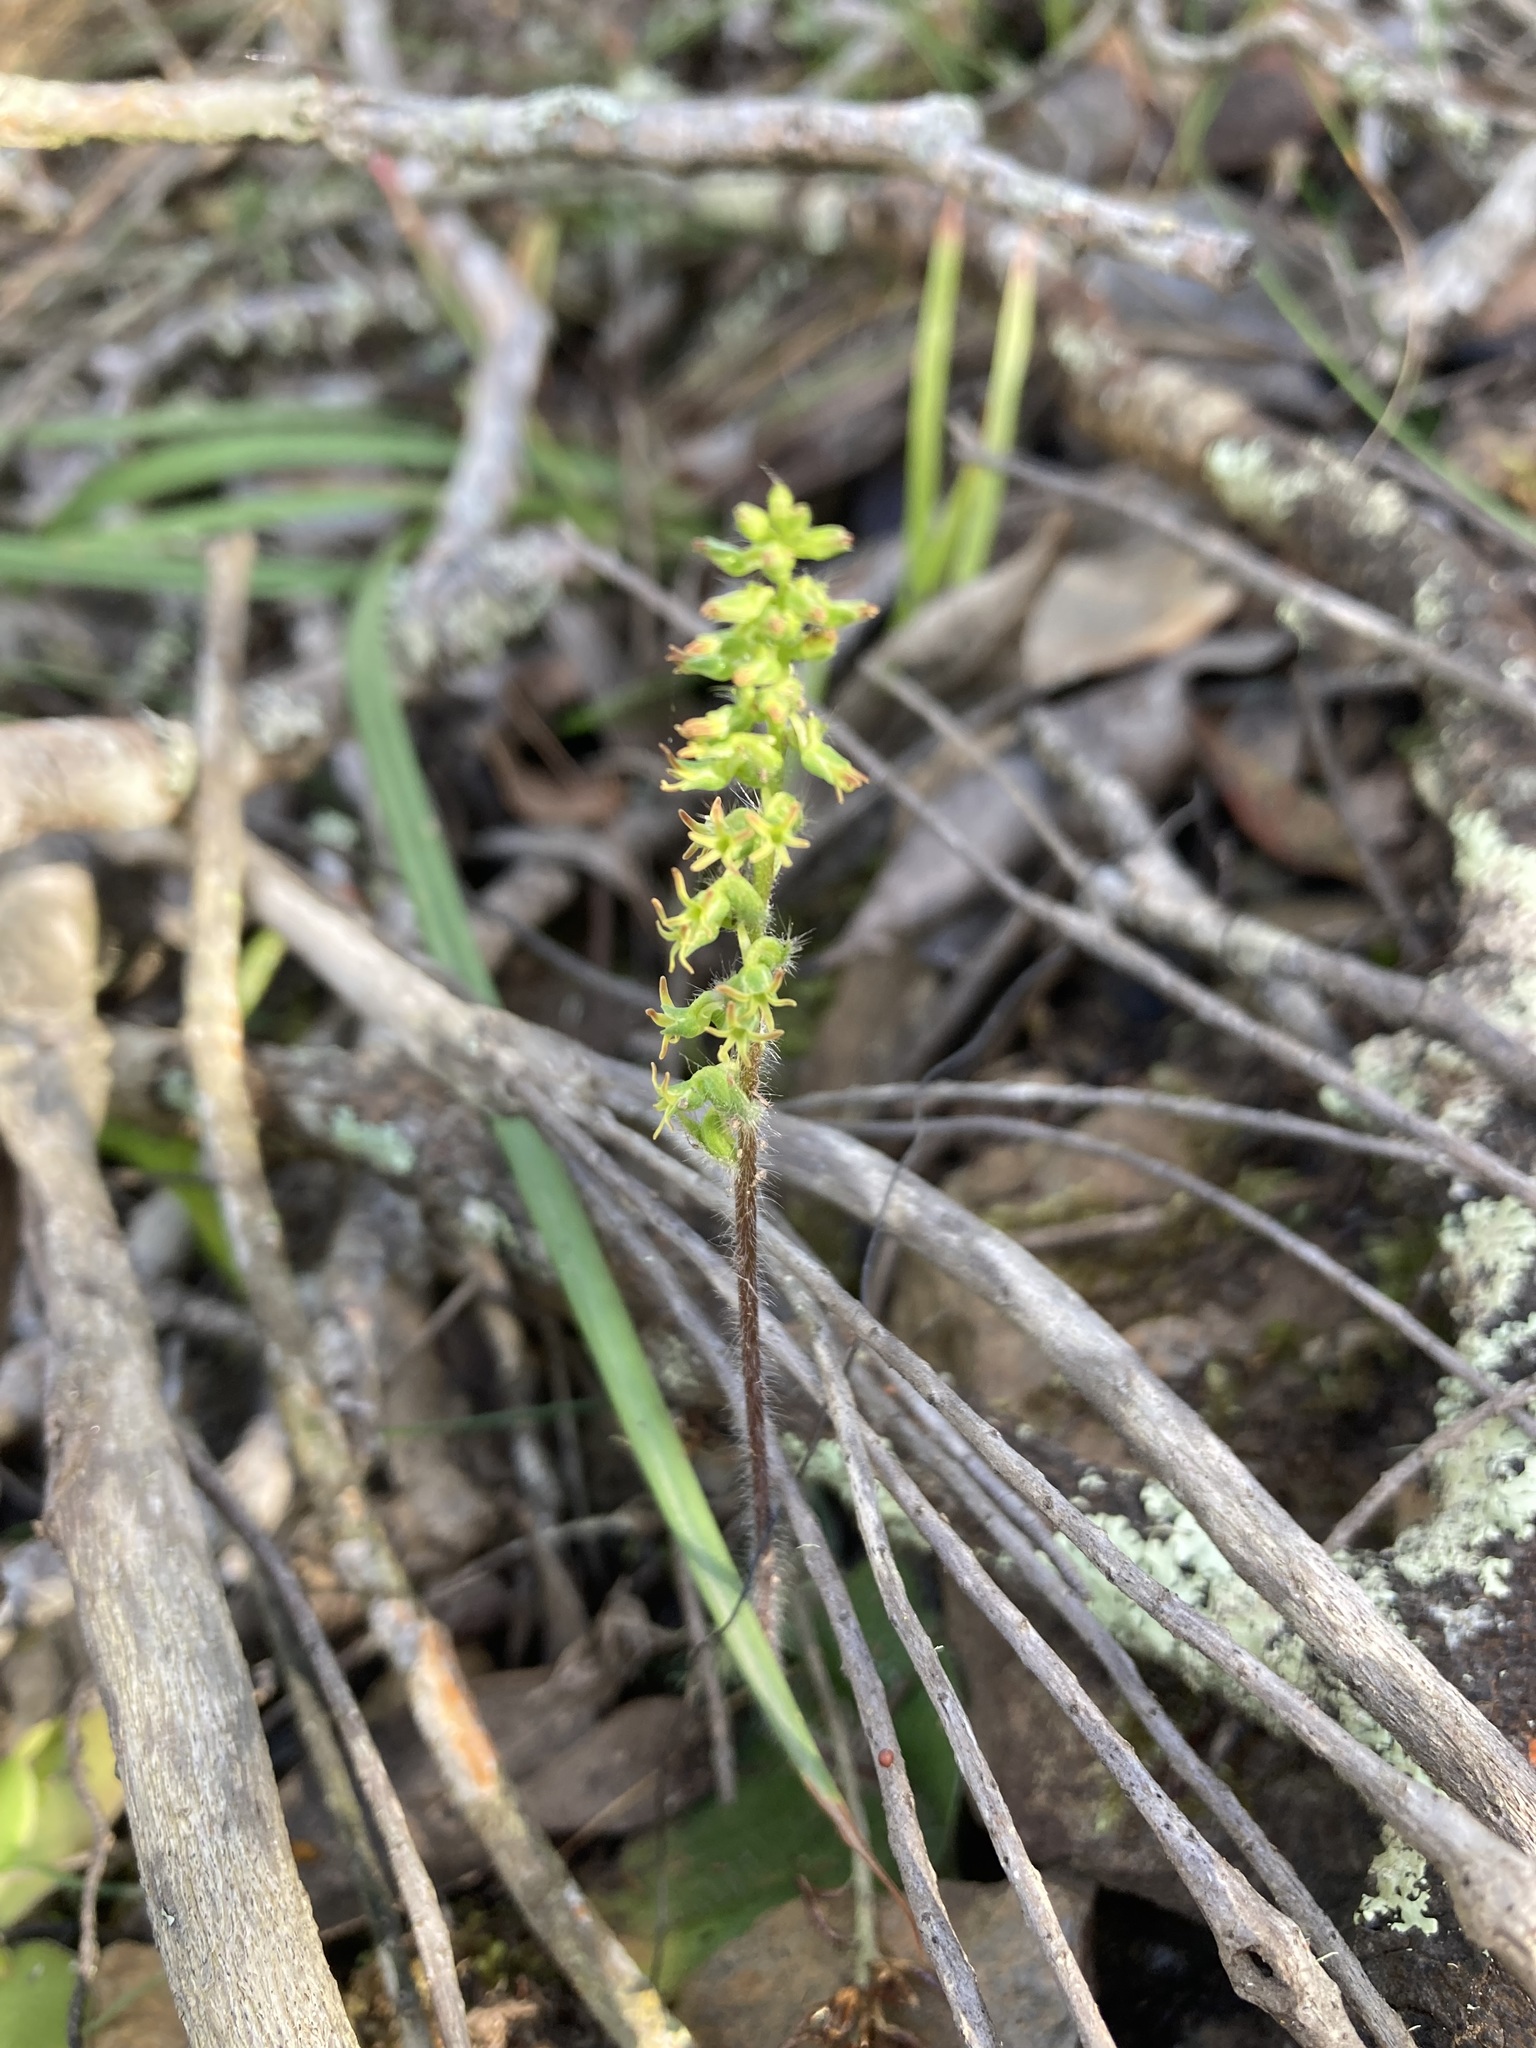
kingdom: Plantae
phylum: Tracheophyta
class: Liliopsida
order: Asparagales
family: Orchidaceae
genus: Holothrix
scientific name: Holothrix villosa
